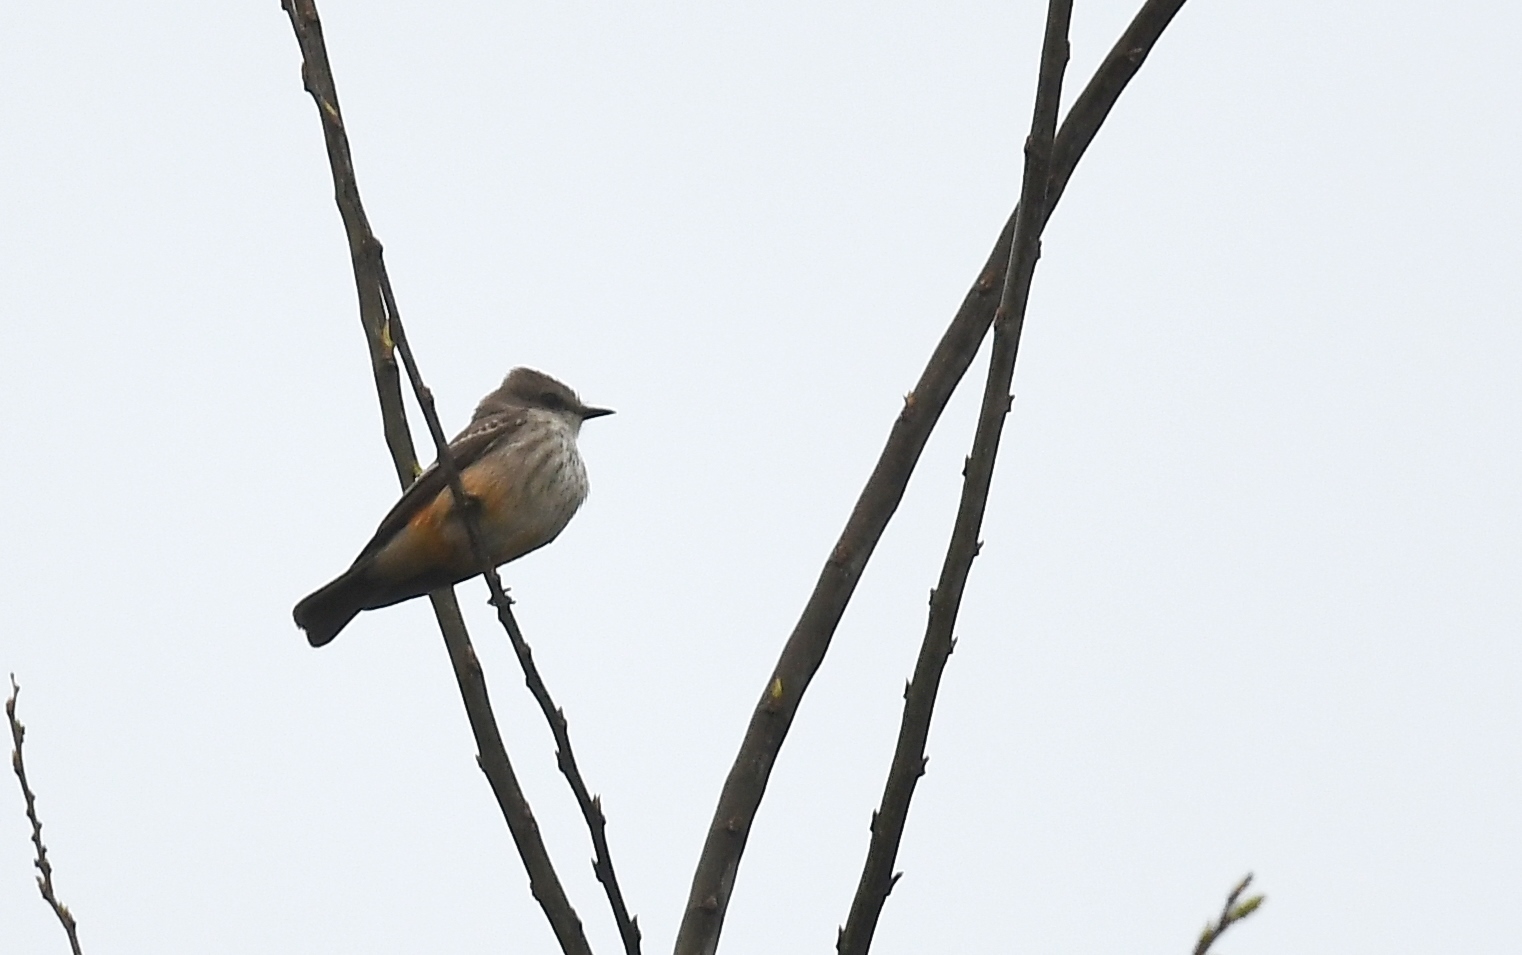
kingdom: Animalia
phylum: Chordata
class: Aves
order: Passeriformes
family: Tyrannidae
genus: Pyrocephalus
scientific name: Pyrocephalus rubinus
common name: Vermilion flycatcher
